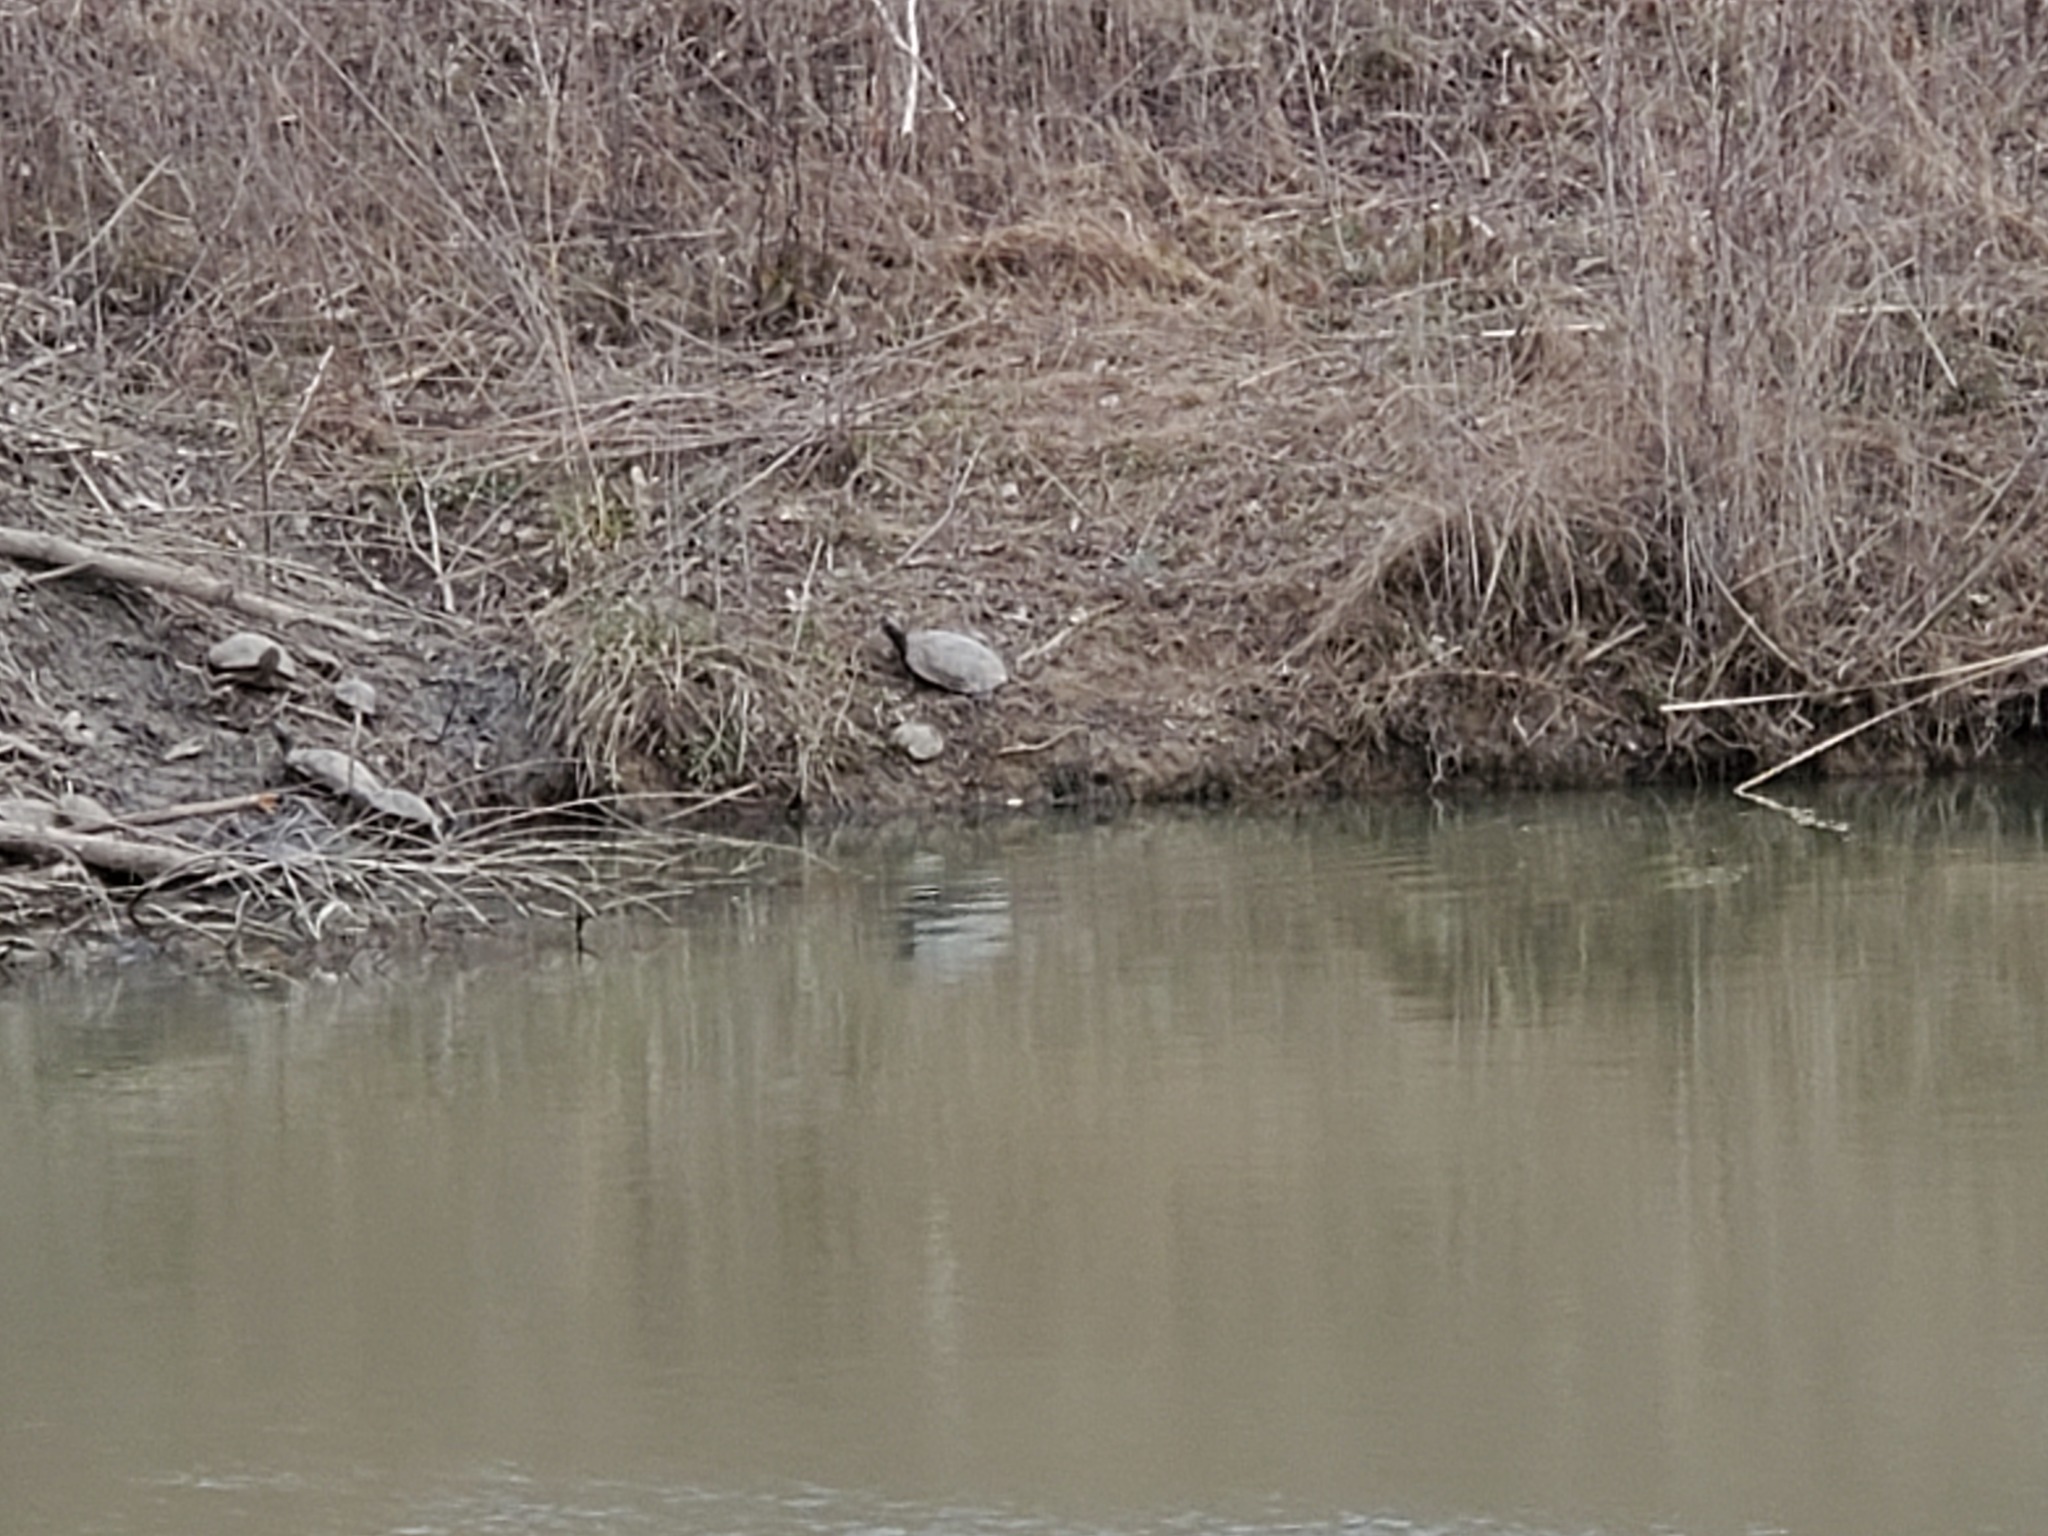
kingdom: Animalia
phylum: Chordata
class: Testudines
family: Emydidae
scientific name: Emydidae
